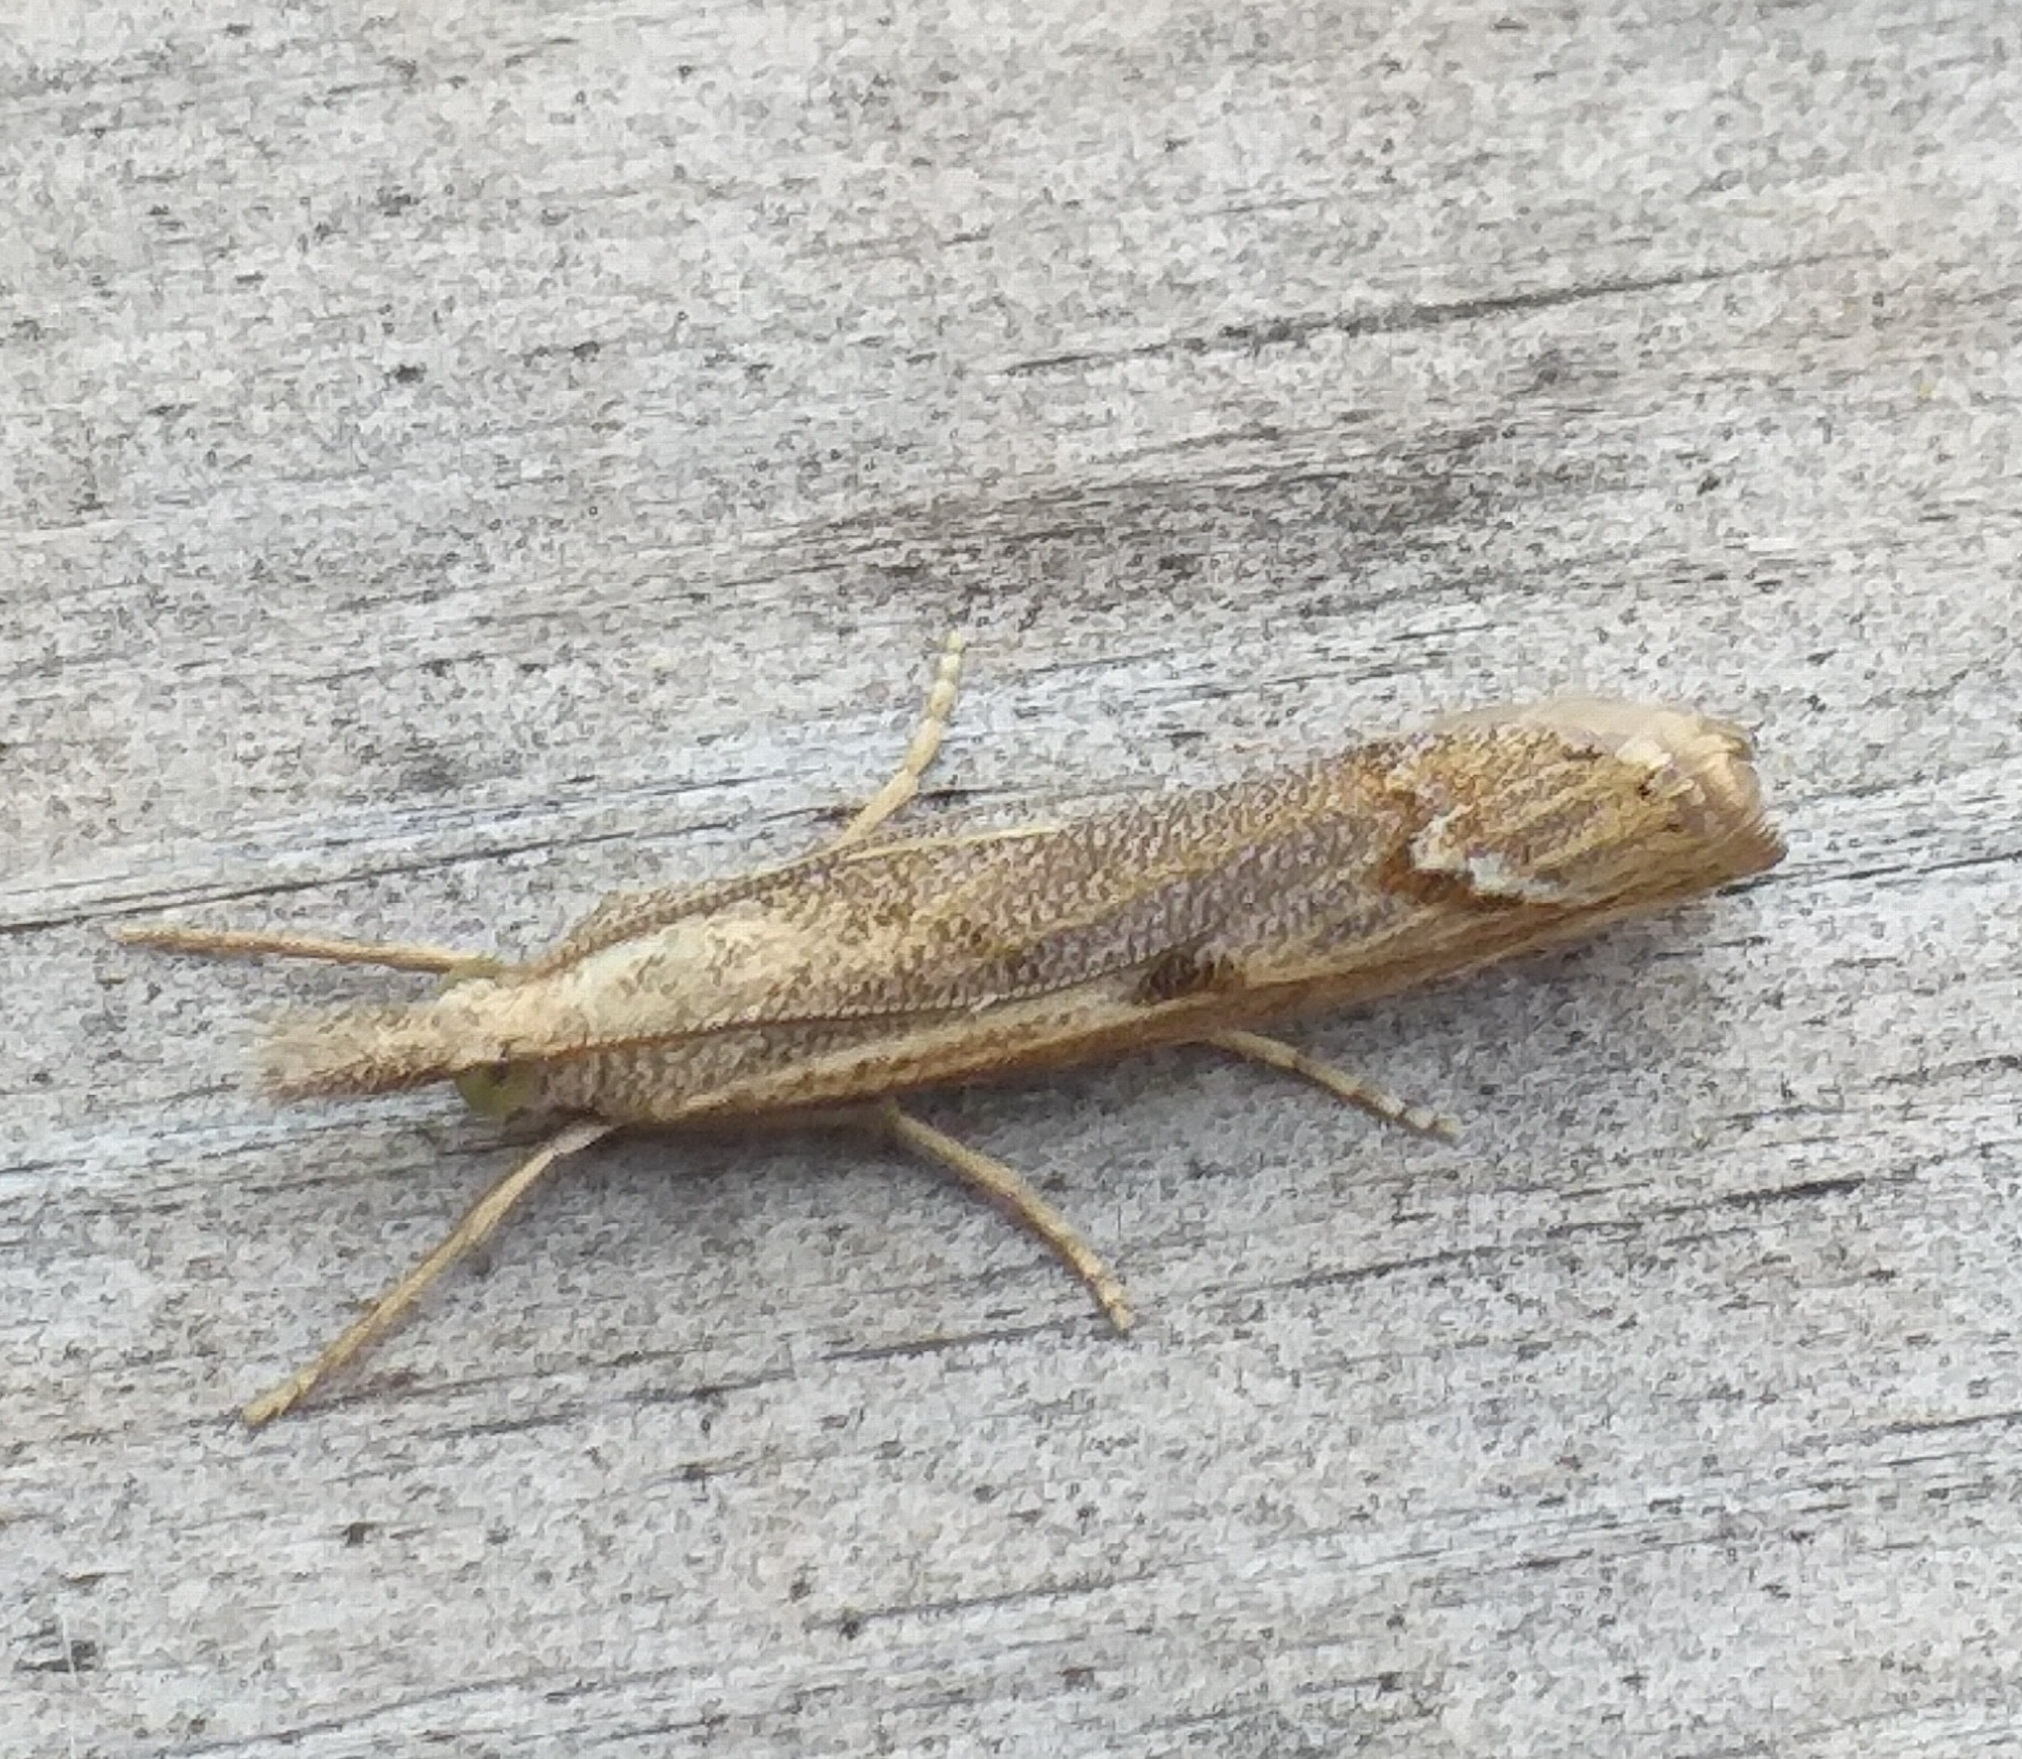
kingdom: Animalia
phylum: Arthropoda
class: Insecta
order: Lepidoptera
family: Crambidae
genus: Agriphila
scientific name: Agriphila geniculea
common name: Elbow-stripe grass-veneer
